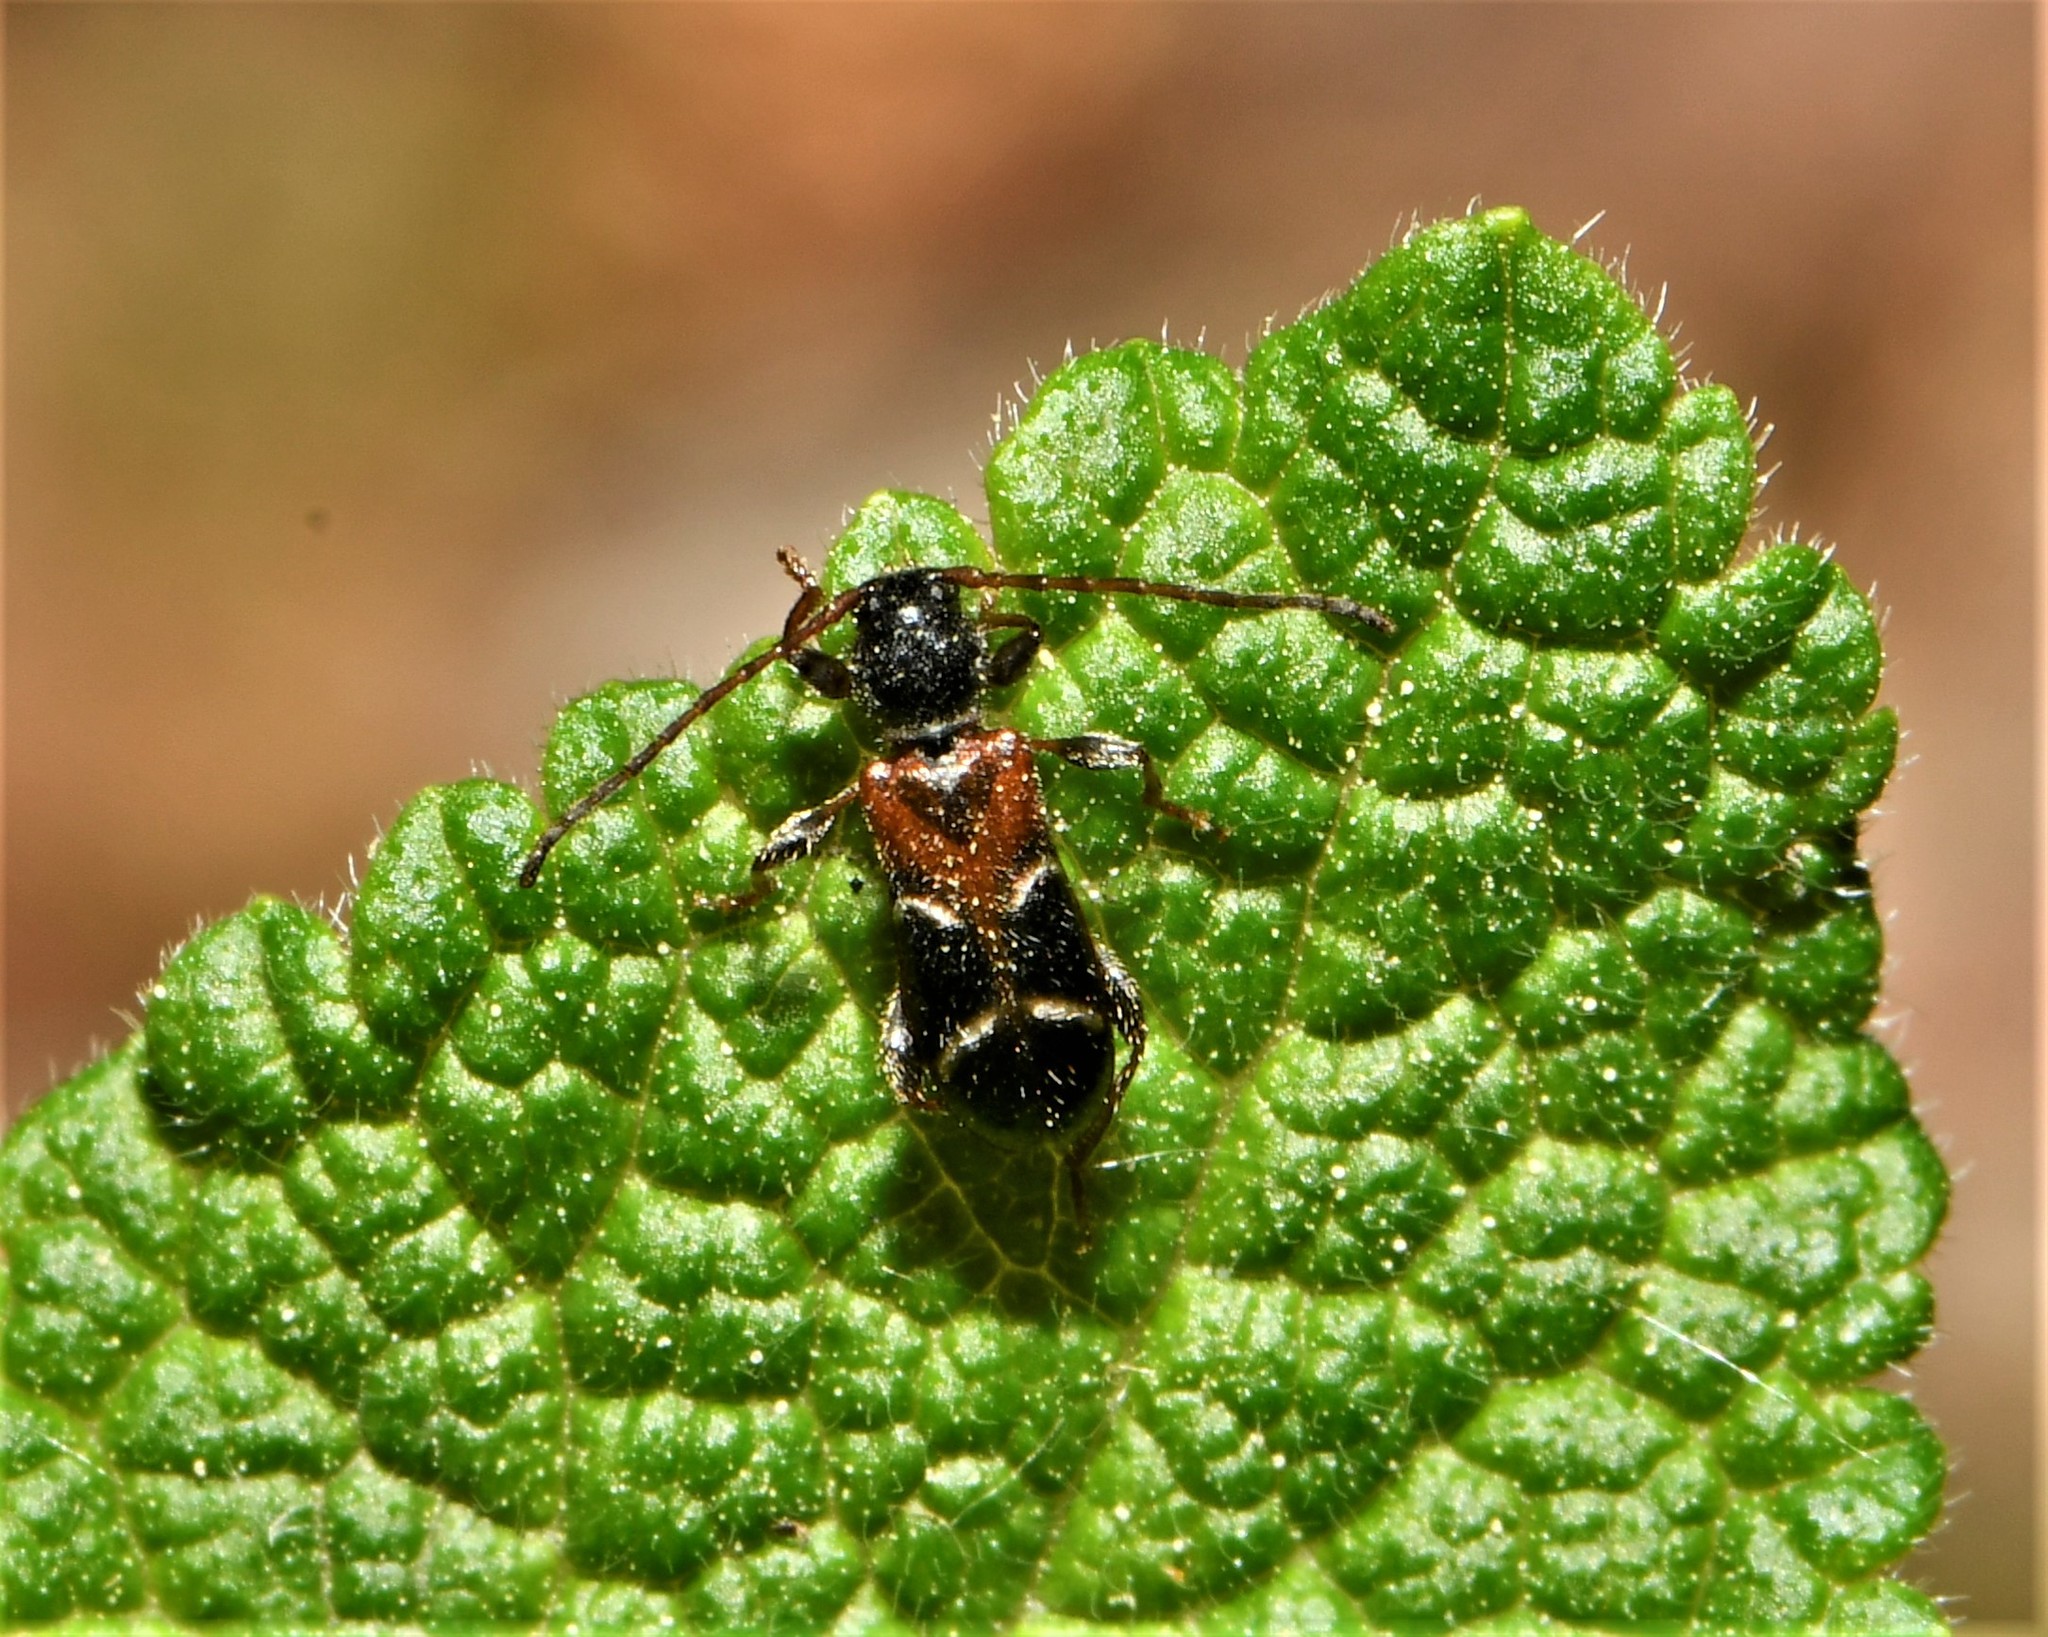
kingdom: Animalia
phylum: Arthropoda
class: Insecta
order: Coleoptera
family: Cerambycidae
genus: Poecilium
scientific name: Poecilium alni
